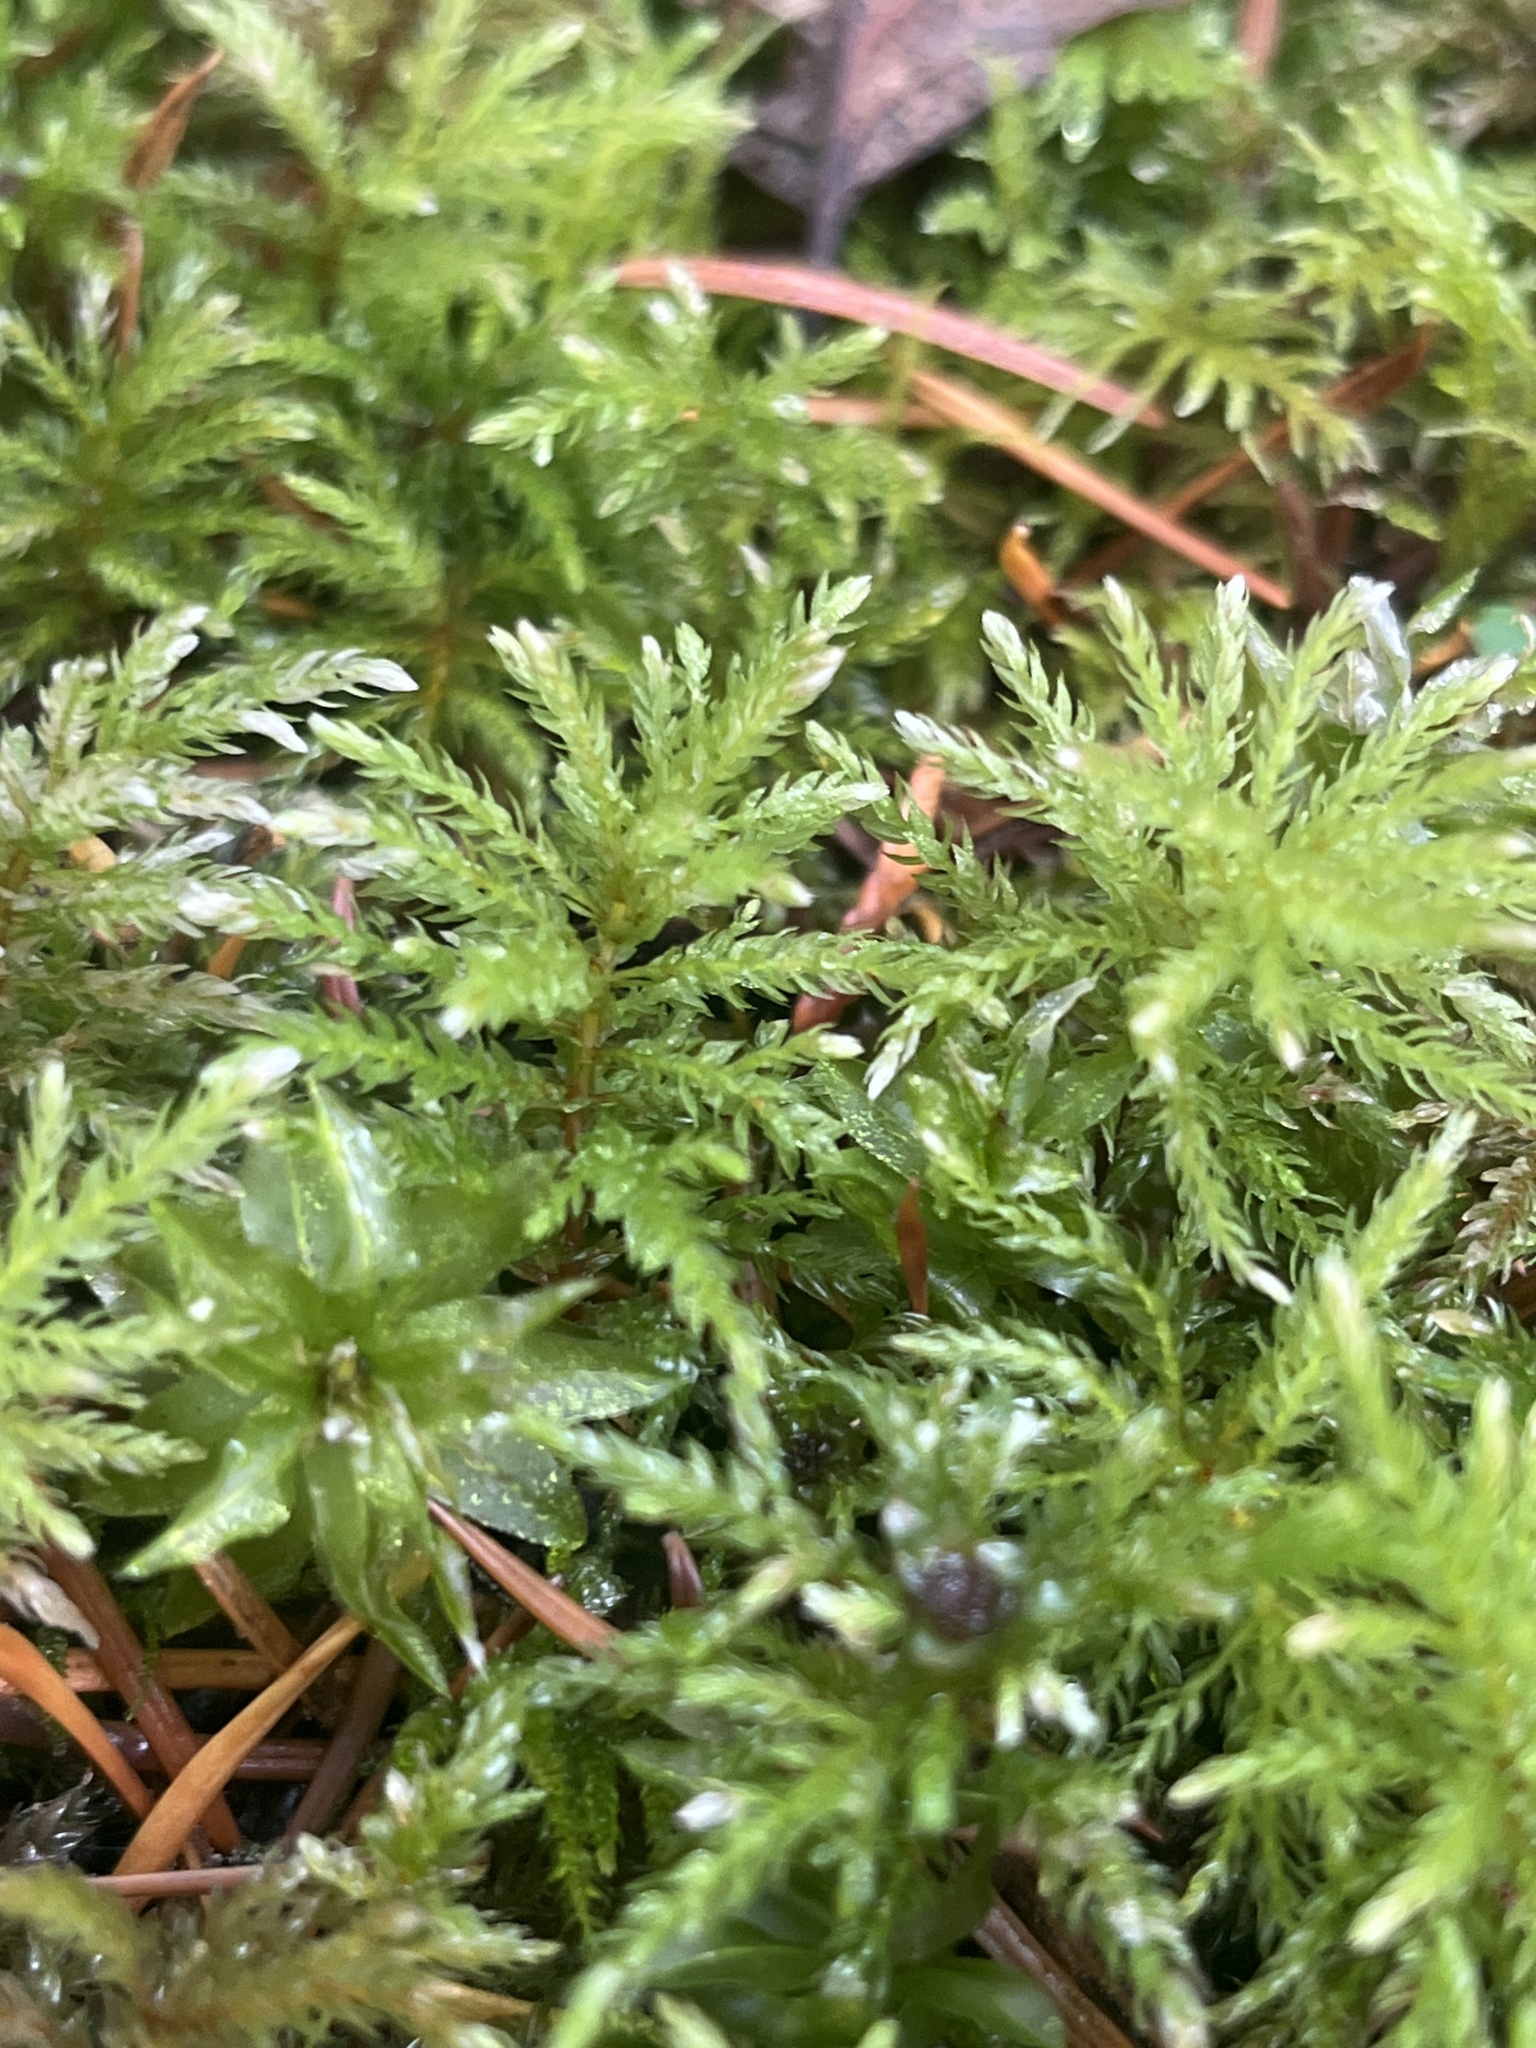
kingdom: Plantae
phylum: Bryophyta
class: Bryopsida
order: Bryales
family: Mniaceae
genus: Leucolepis
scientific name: Leucolepis acanthoneura
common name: Leucolepis umbrella moss
